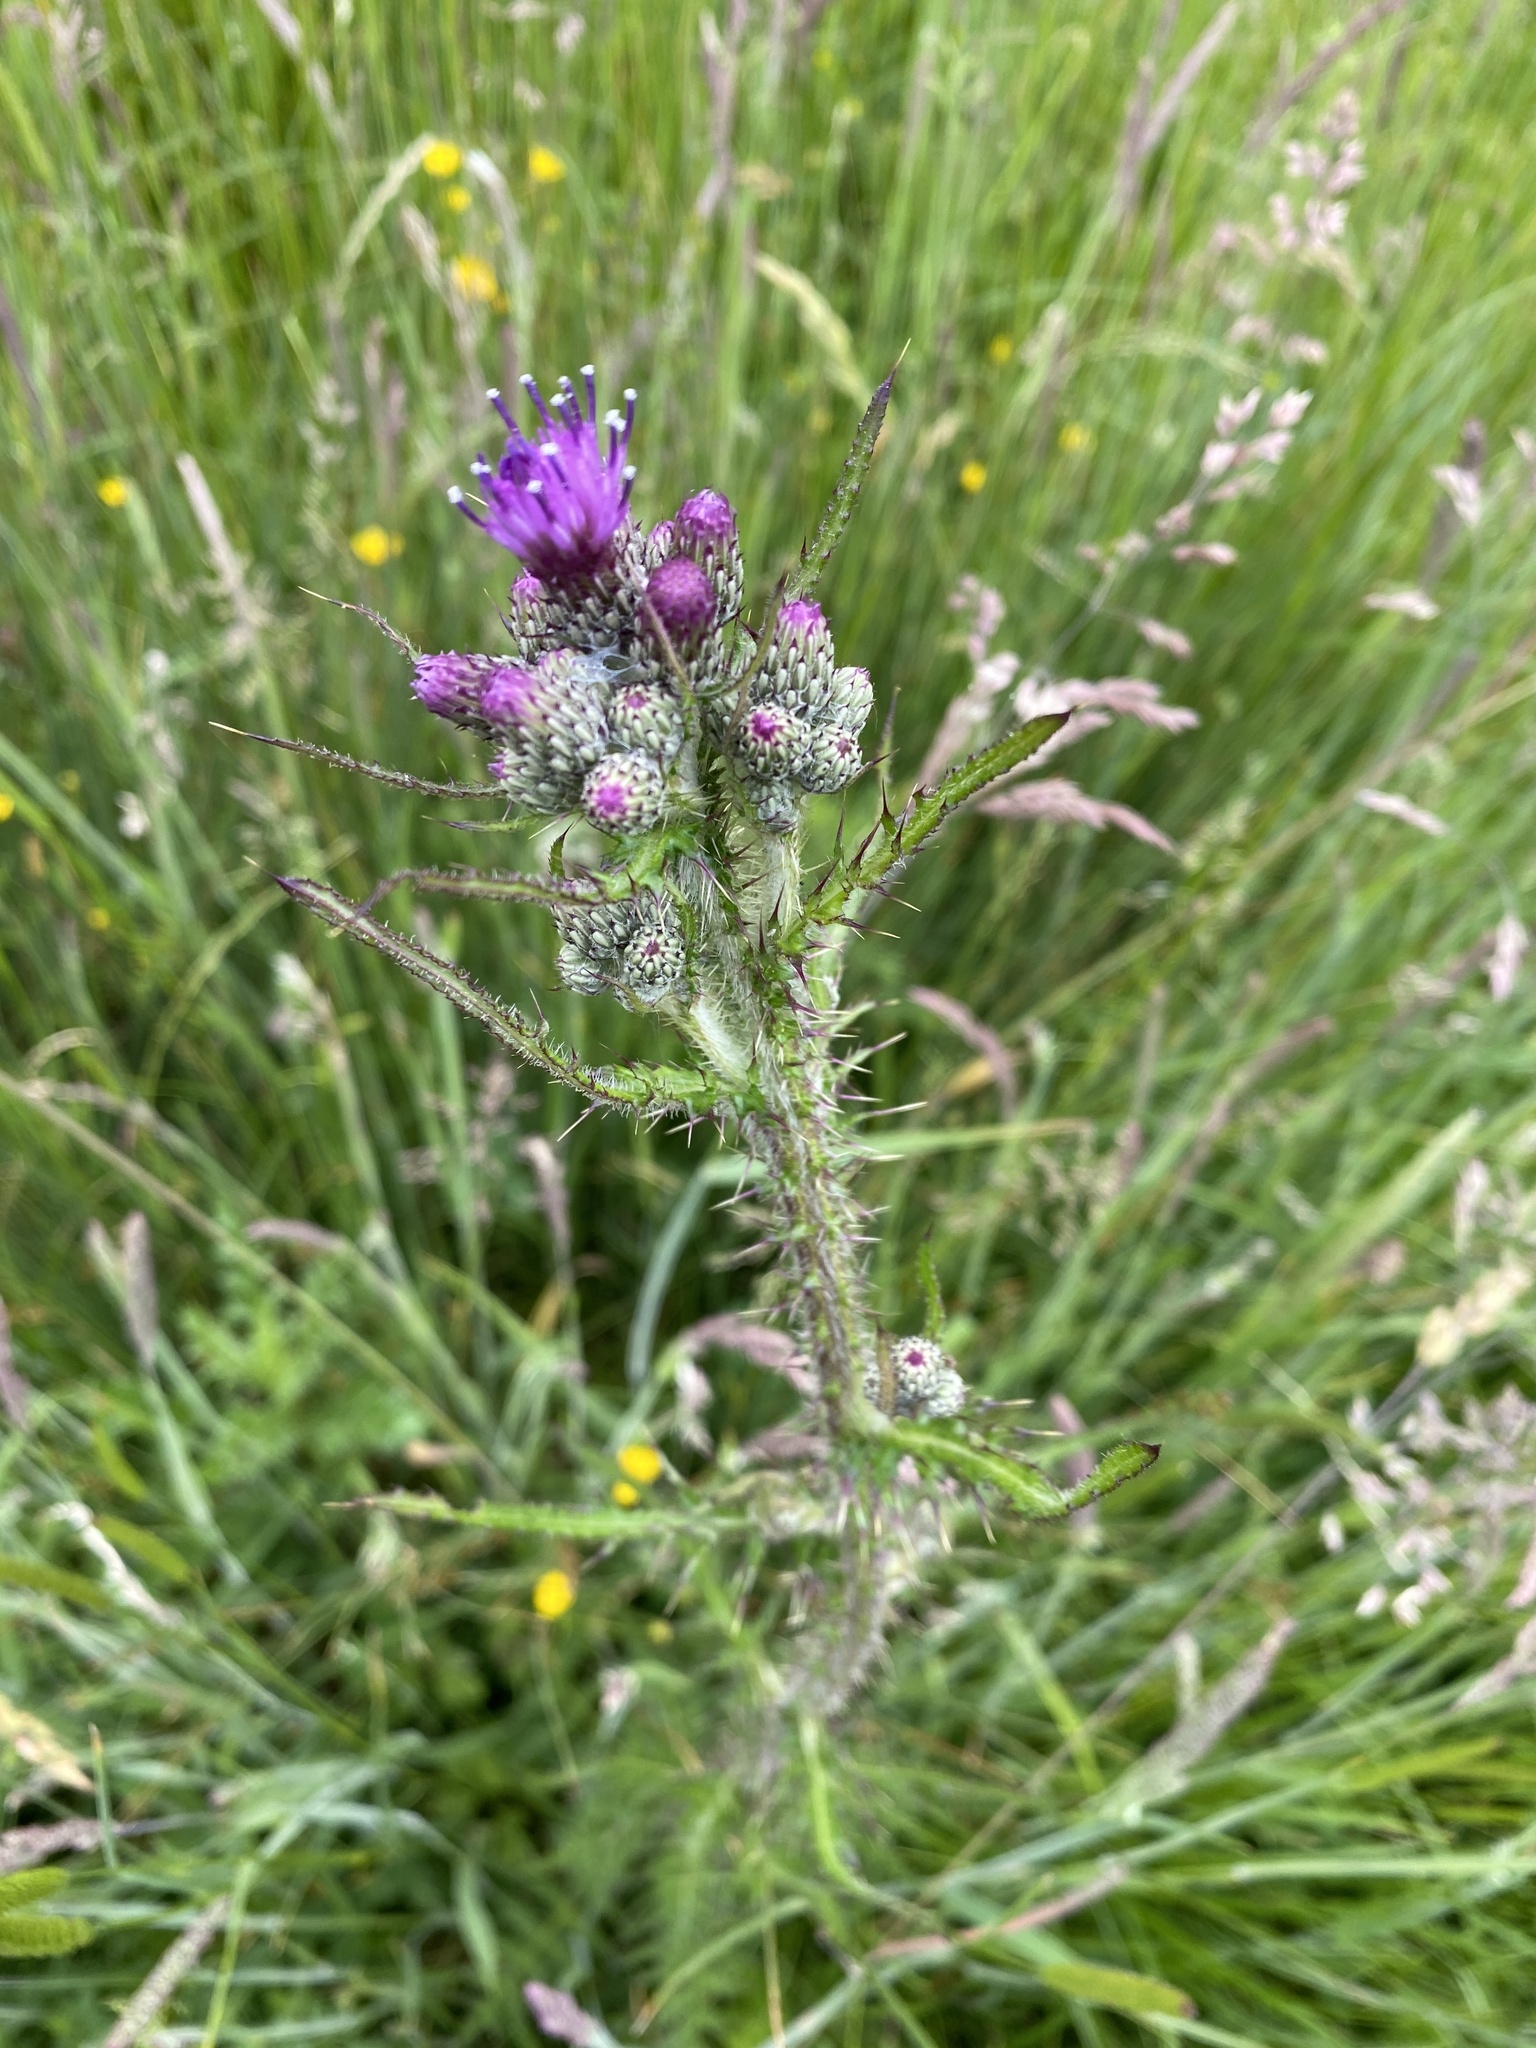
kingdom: Plantae
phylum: Tracheophyta
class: Magnoliopsida
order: Asterales
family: Asteraceae
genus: Cirsium
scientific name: Cirsium palustre
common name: Marsh thistle
